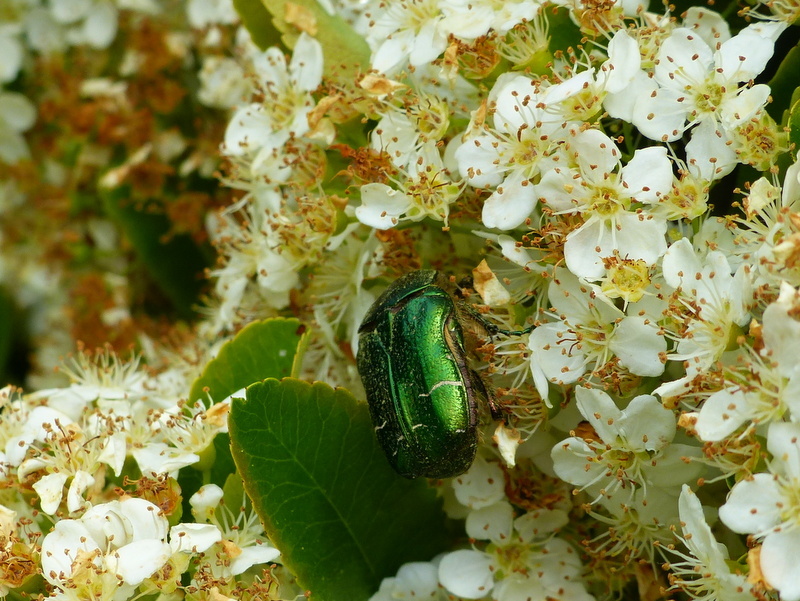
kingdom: Animalia
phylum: Arthropoda
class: Insecta
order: Coleoptera
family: Scarabaeidae
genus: Cetonia
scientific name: Cetonia aurata
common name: Rose chafer
